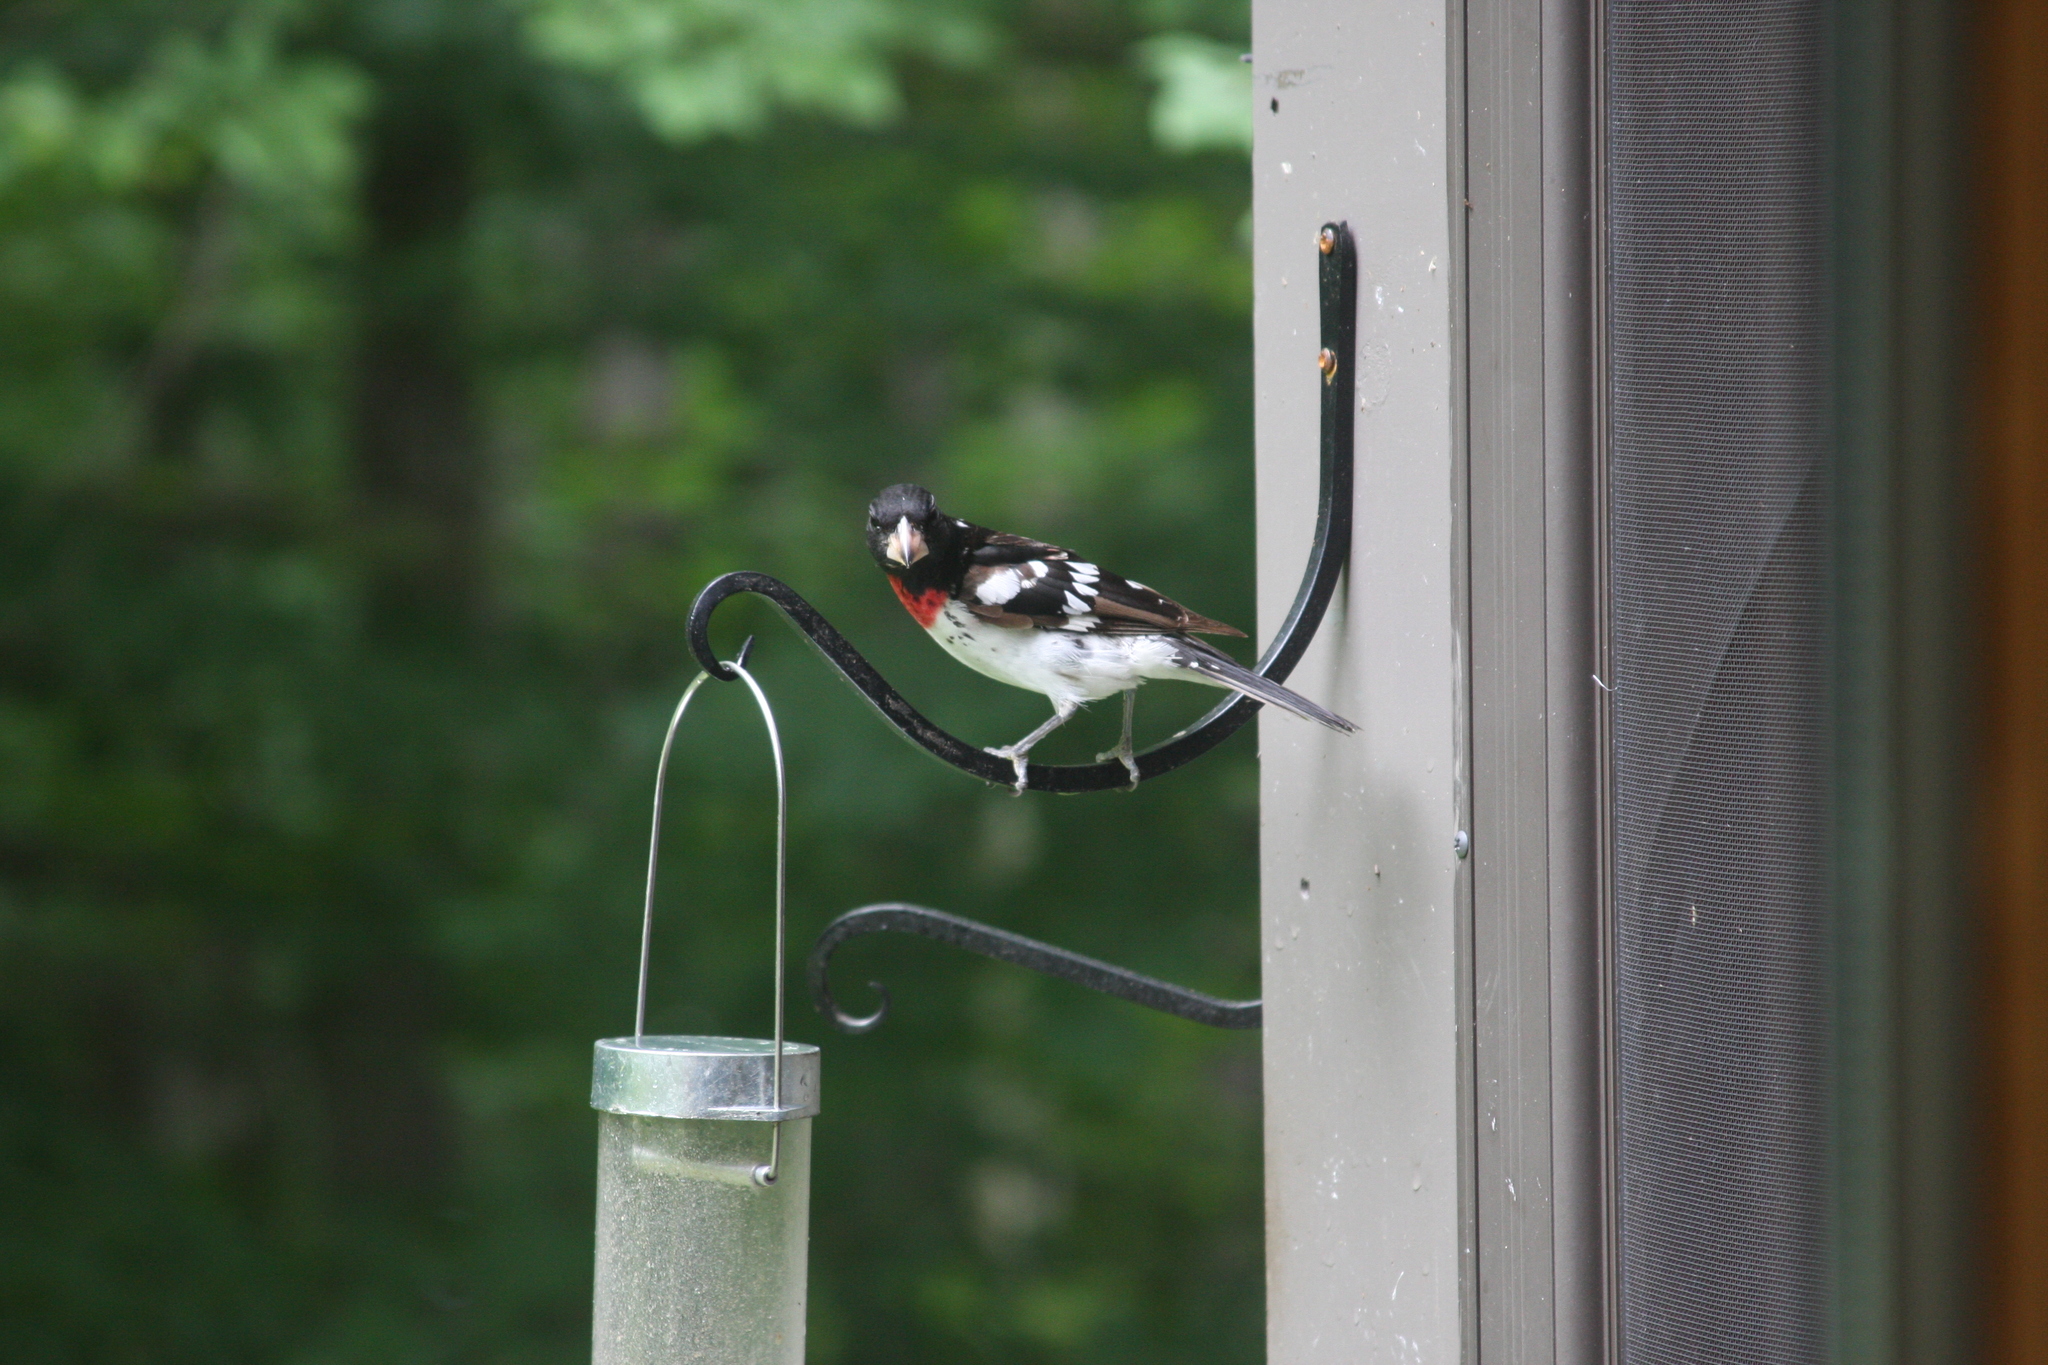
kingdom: Animalia
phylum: Chordata
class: Aves
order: Passeriformes
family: Cardinalidae
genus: Pheucticus
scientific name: Pheucticus ludovicianus
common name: Rose-breasted grosbeak
